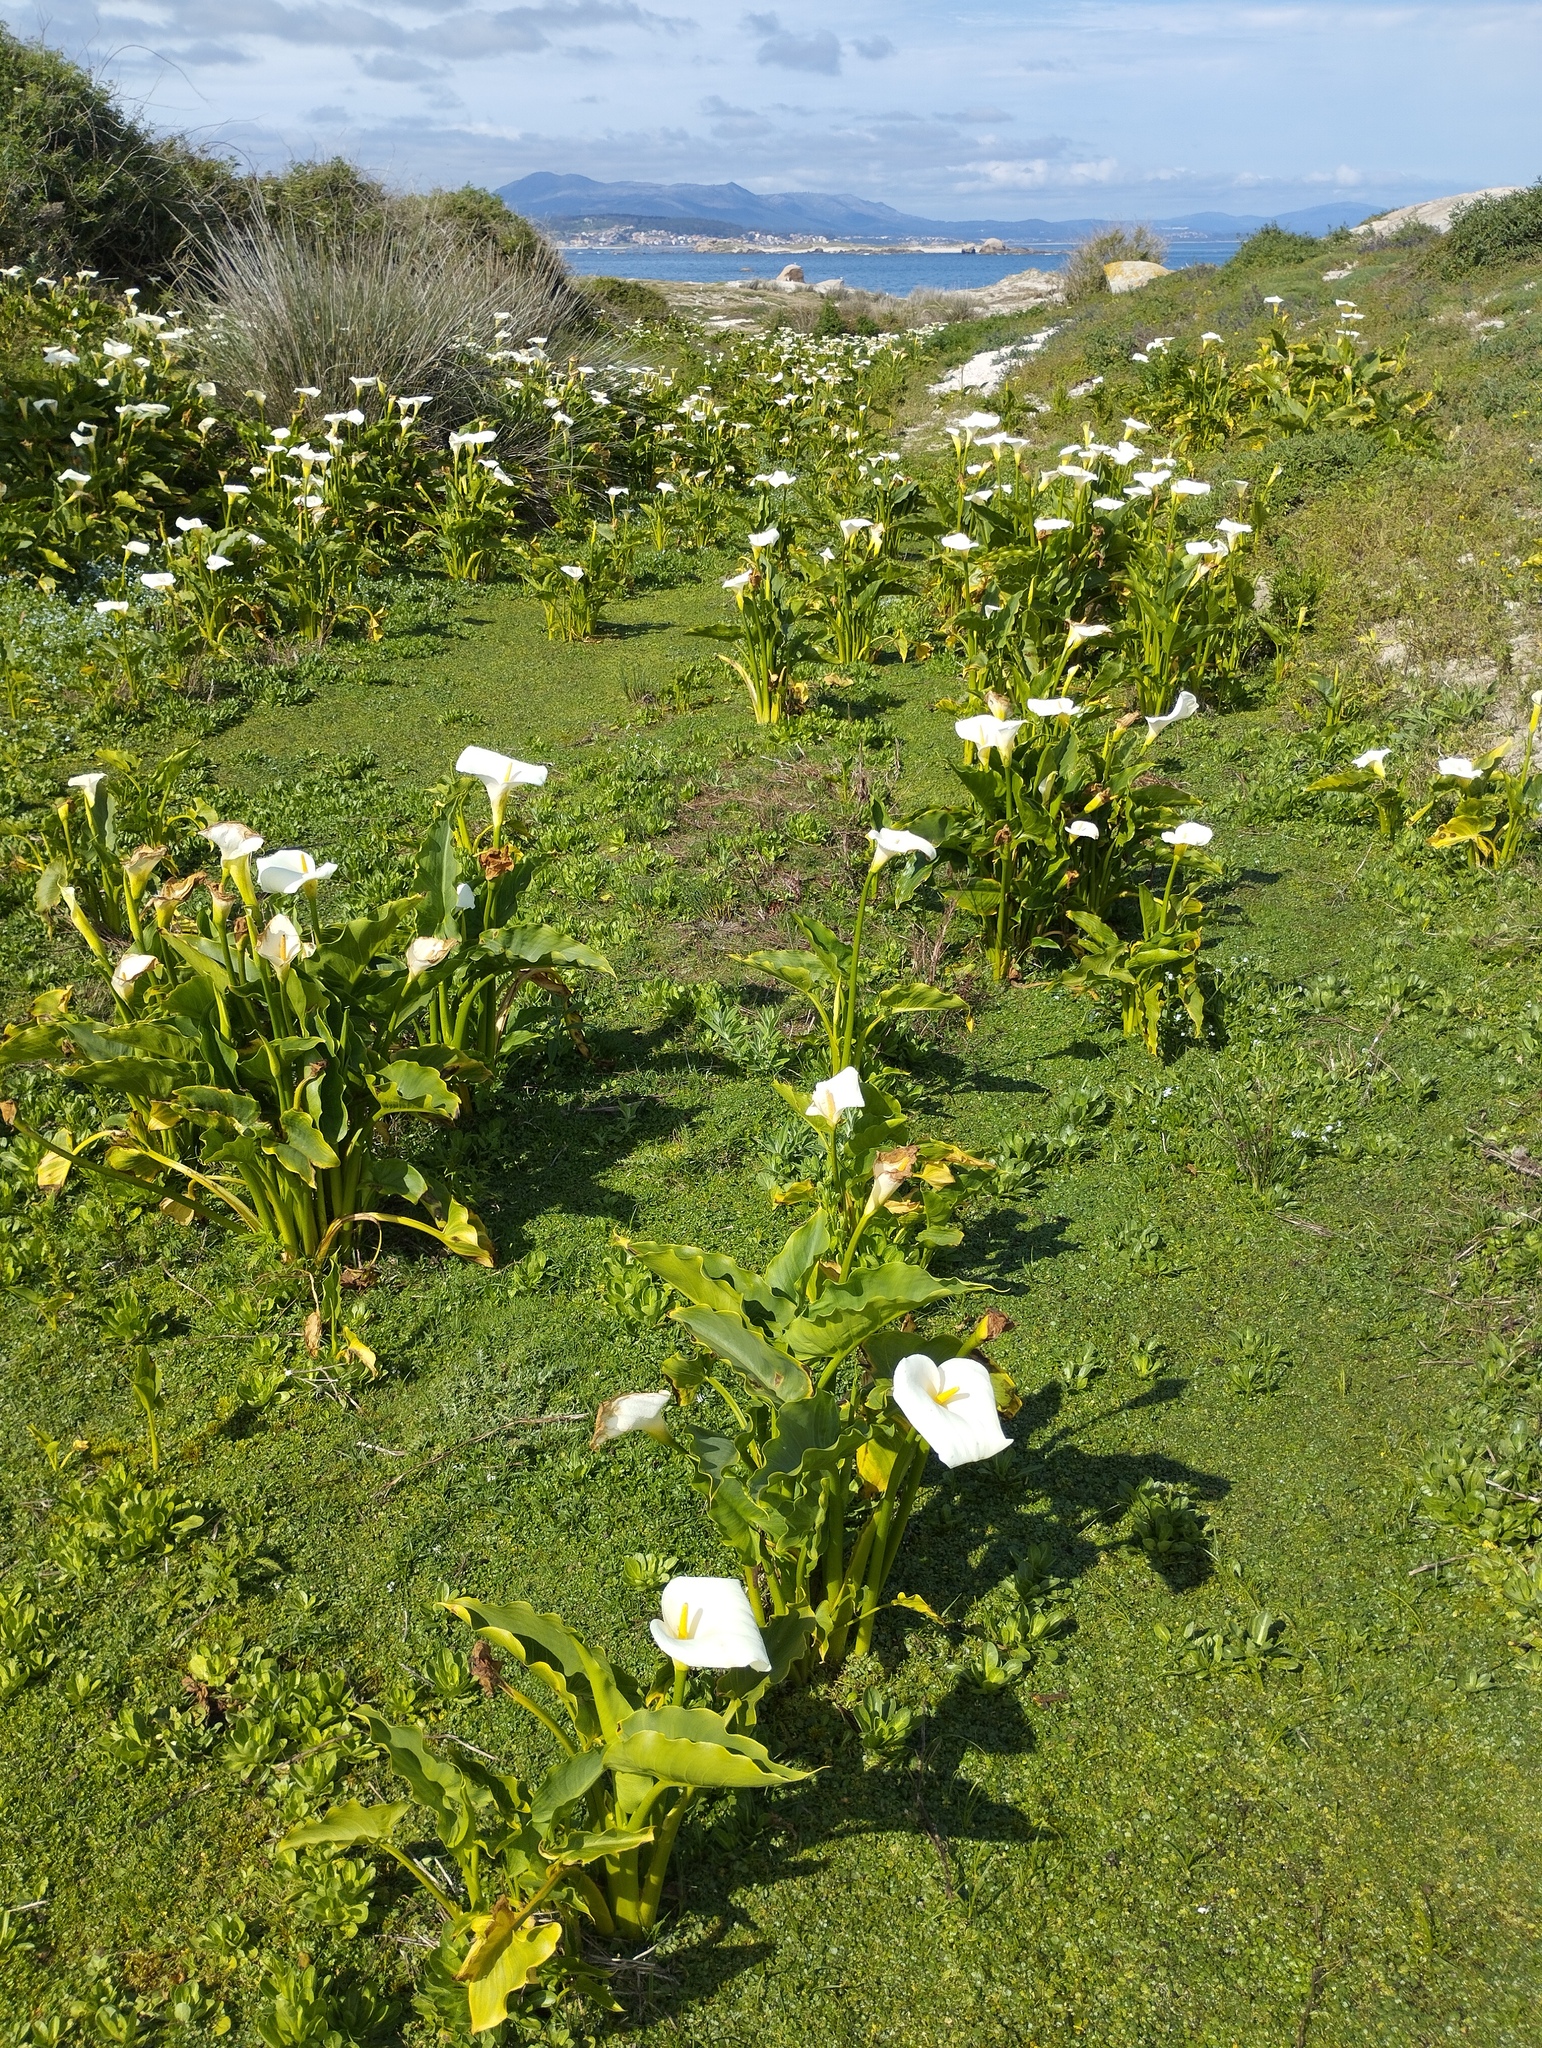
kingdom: Plantae
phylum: Tracheophyta
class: Liliopsida
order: Alismatales
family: Araceae
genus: Zantedeschia
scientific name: Zantedeschia aethiopica
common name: Altar-lily
